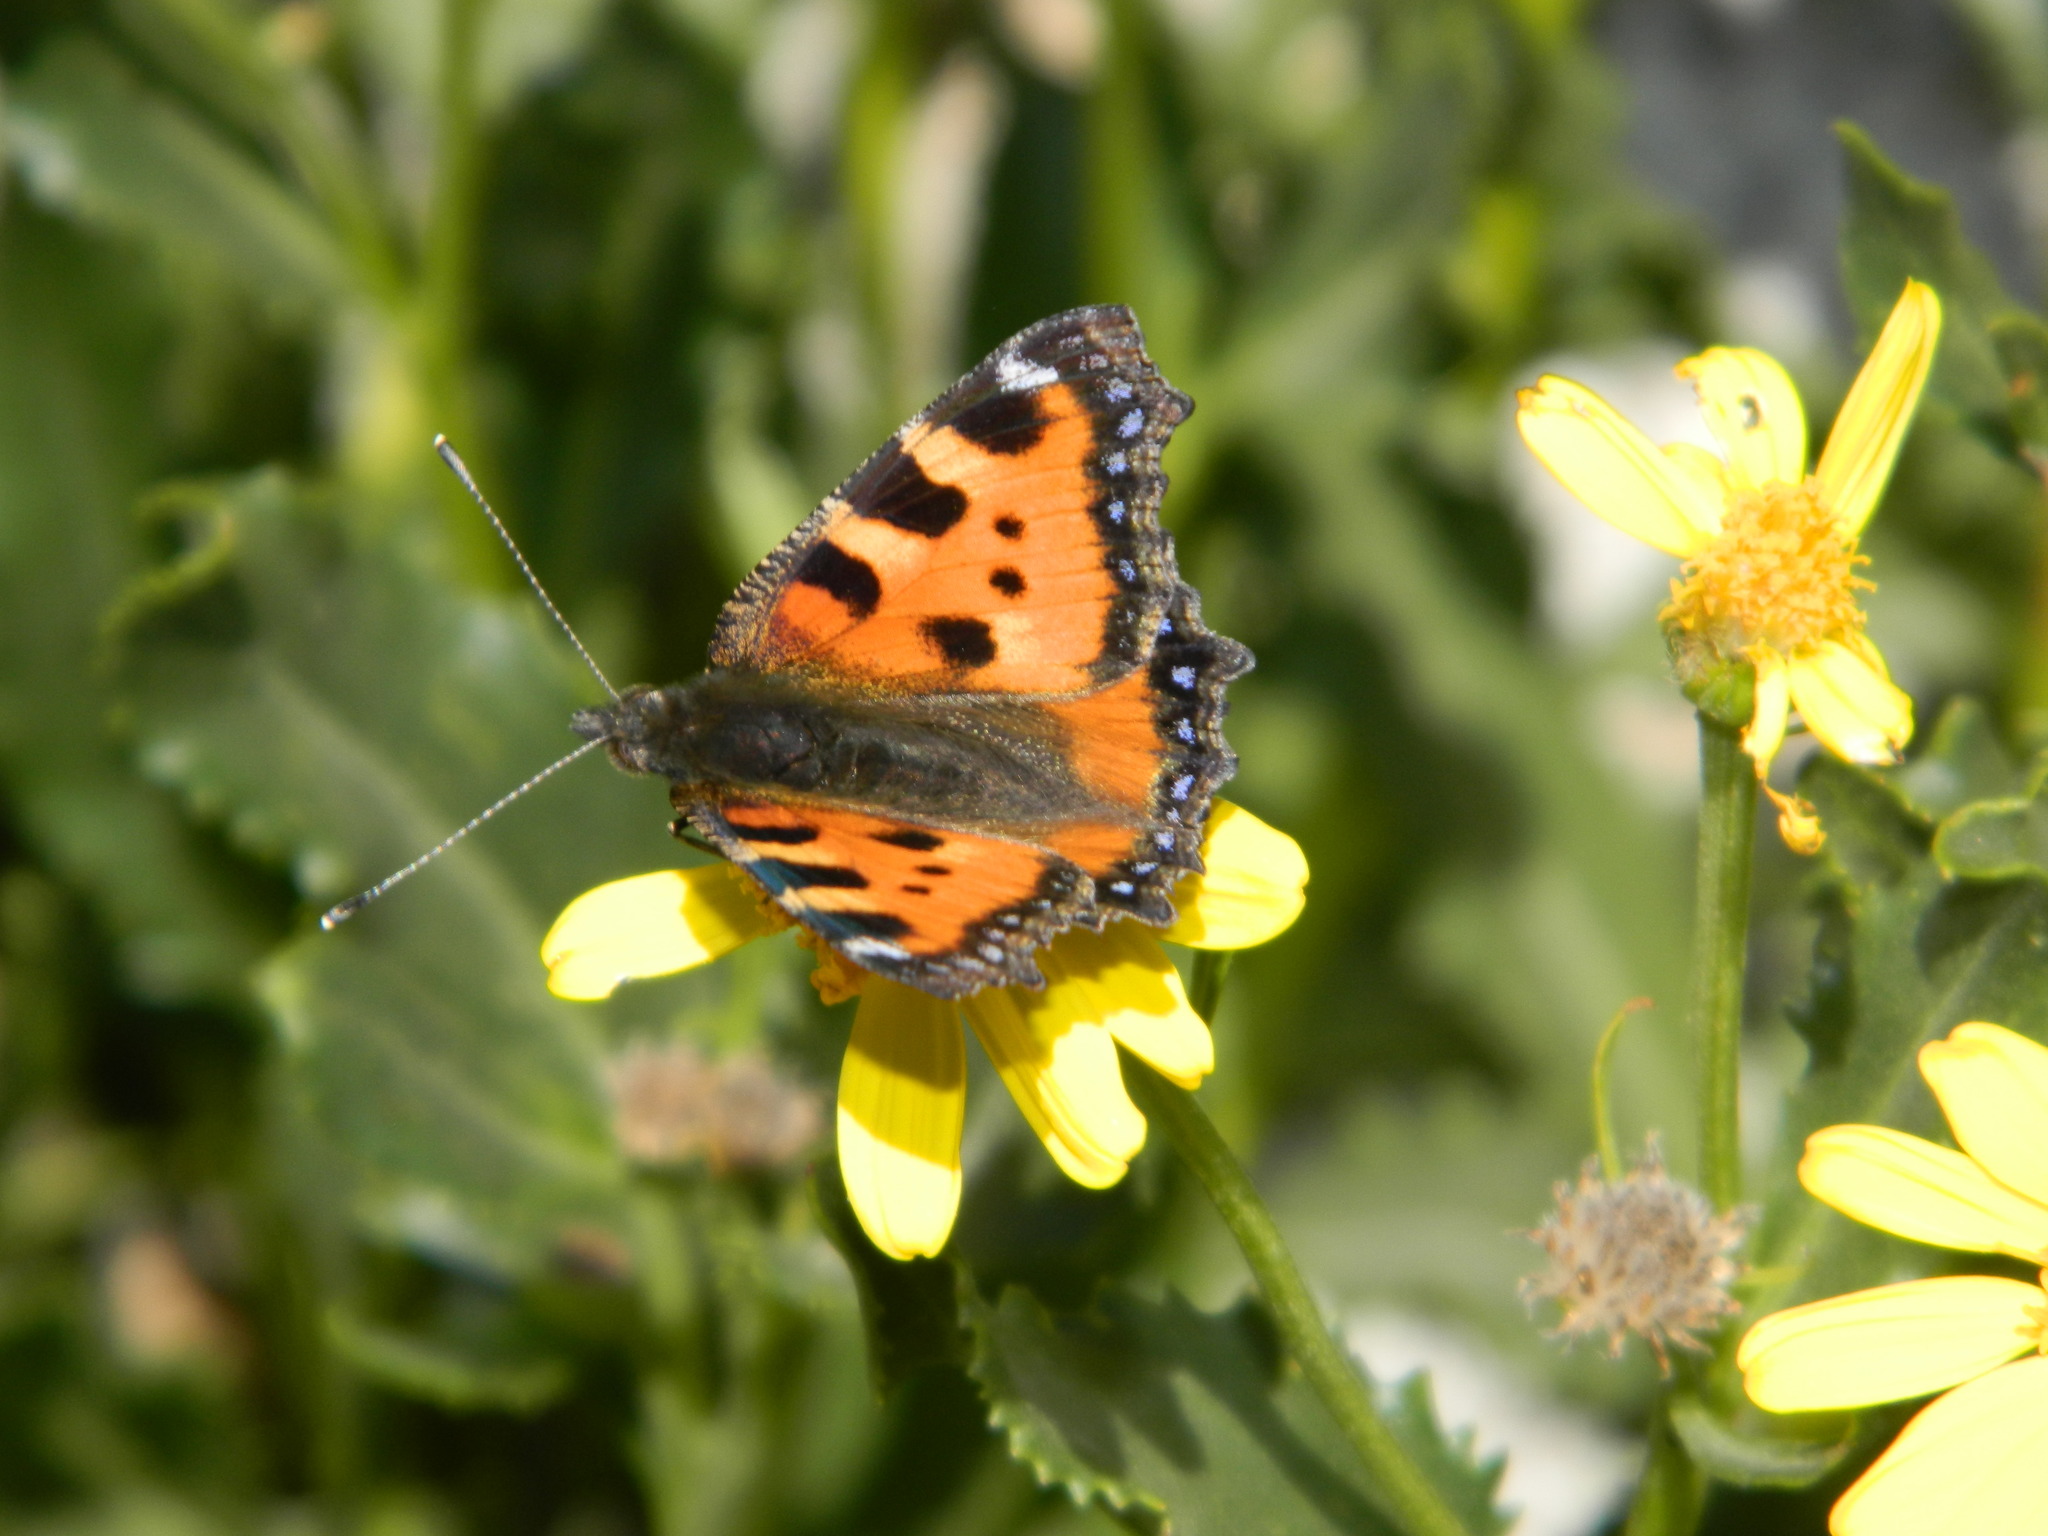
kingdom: Animalia
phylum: Arthropoda
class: Insecta
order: Lepidoptera
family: Nymphalidae
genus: Aglais
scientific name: Aglais urticae
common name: Small tortoiseshell
